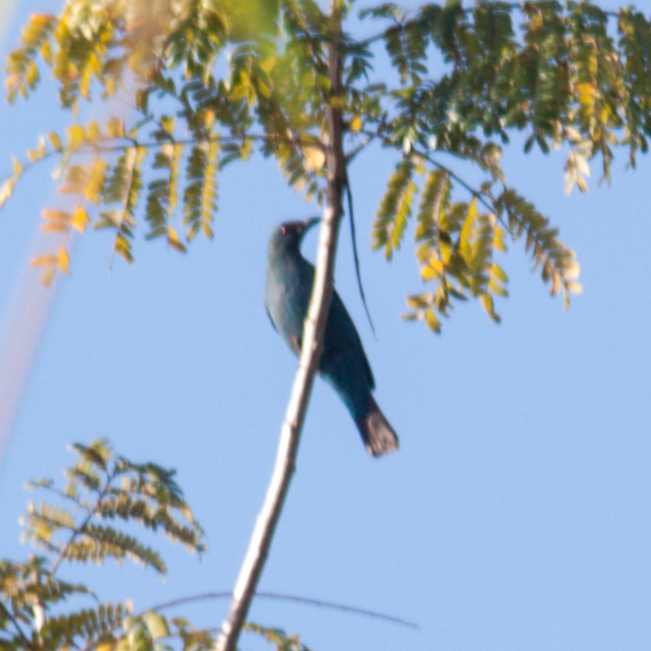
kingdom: Animalia
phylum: Chordata
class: Aves
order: Passeriformes
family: Irenidae
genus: Irena
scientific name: Irena puella
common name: Asian fairy-bluebird
